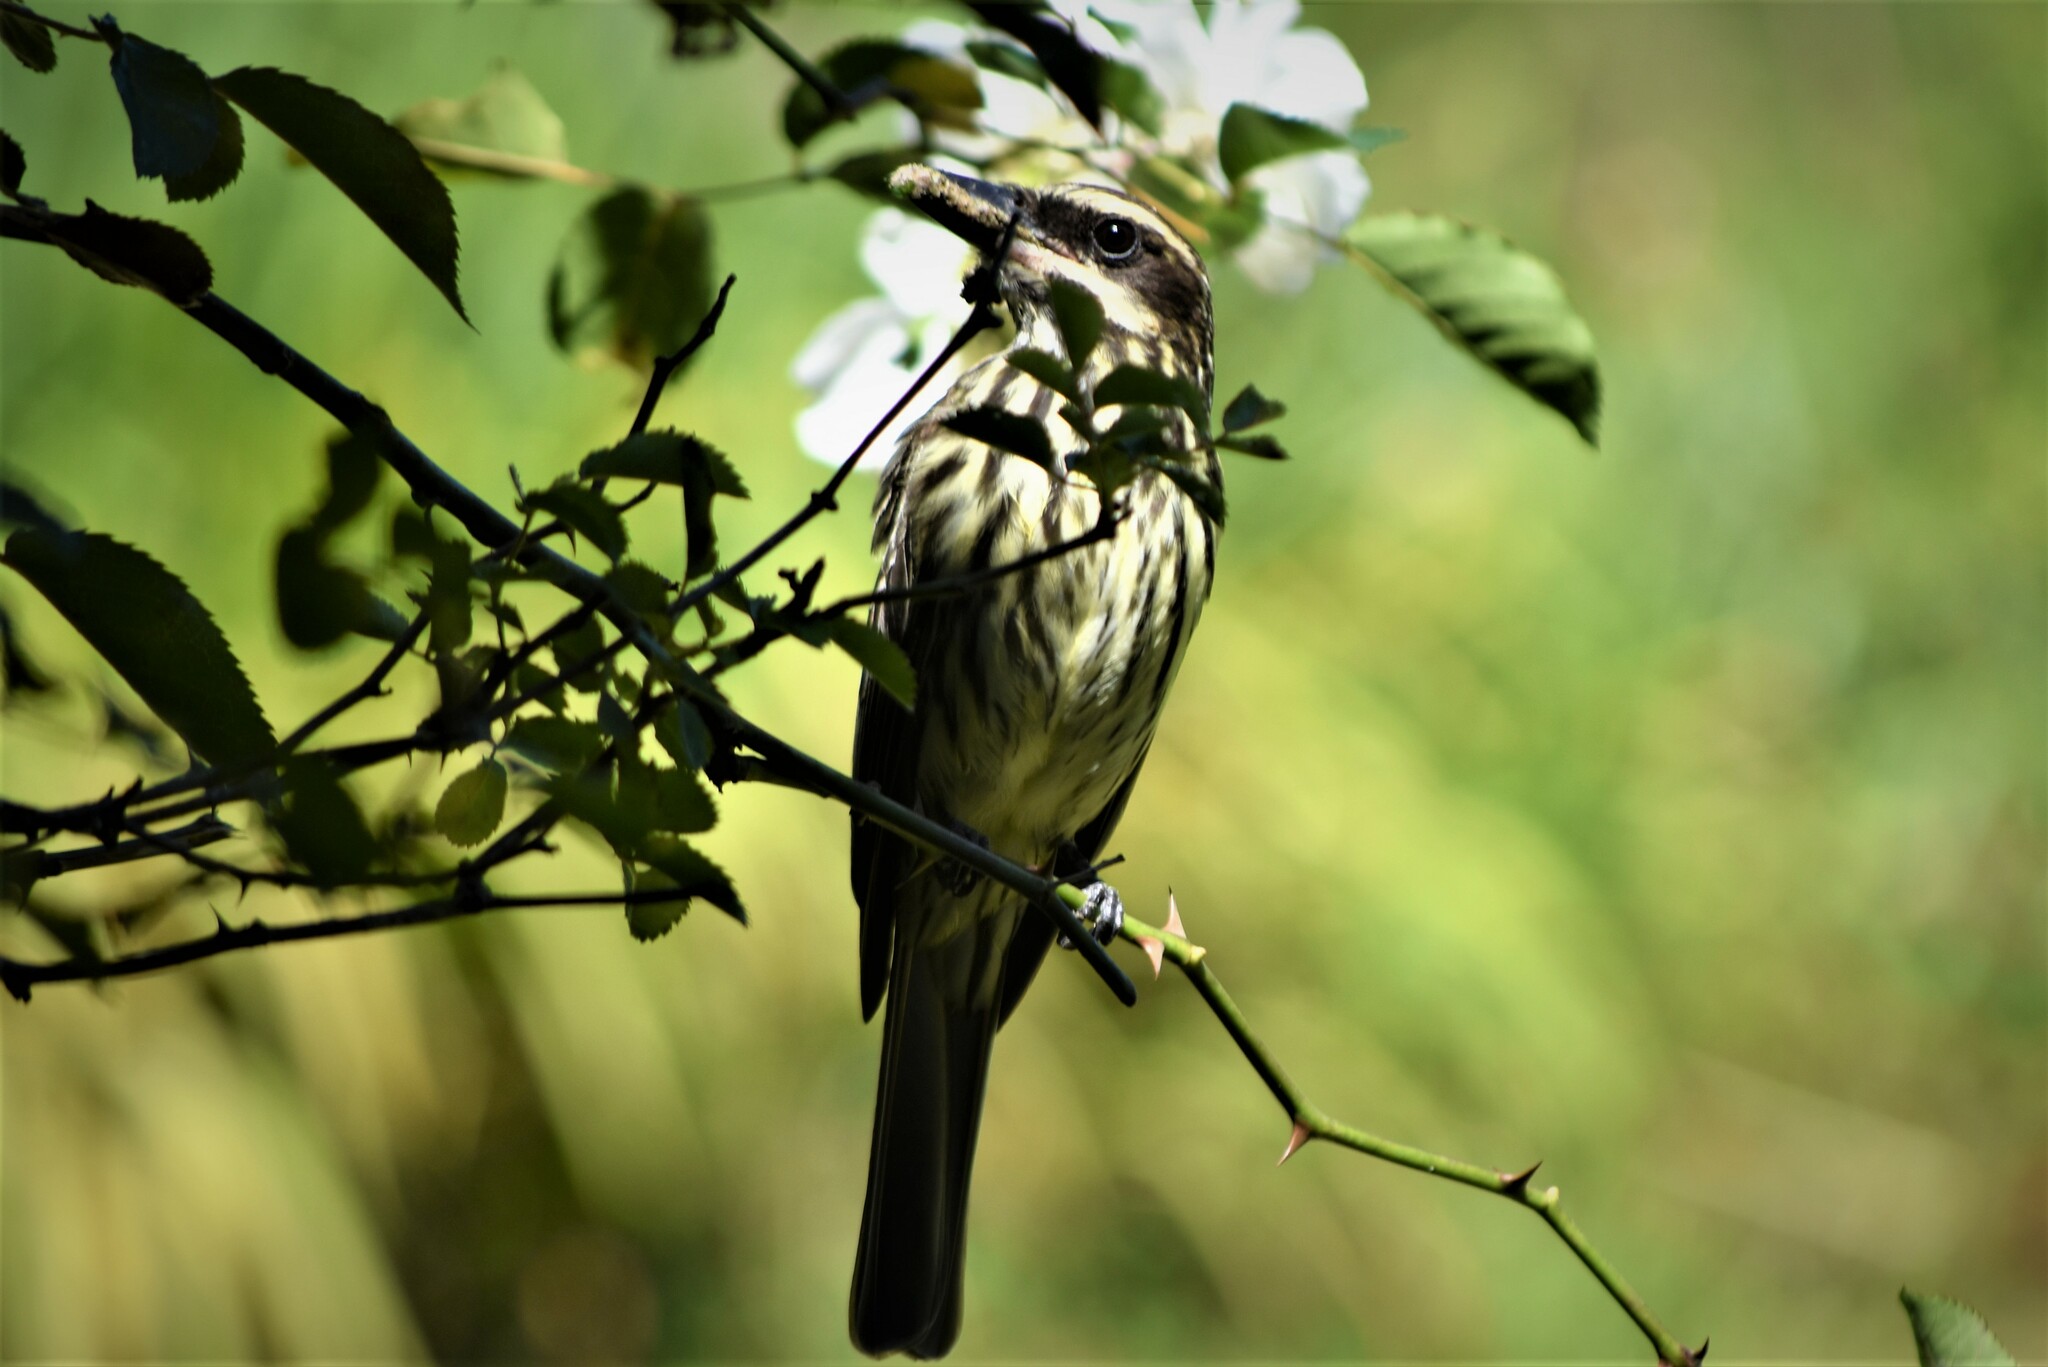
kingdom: Animalia
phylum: Chordata
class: Aves
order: Passeriformes
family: Tyrannidae
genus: Myiodynastes
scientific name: Myiodynastes maculatus
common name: Streaked flycatcher
